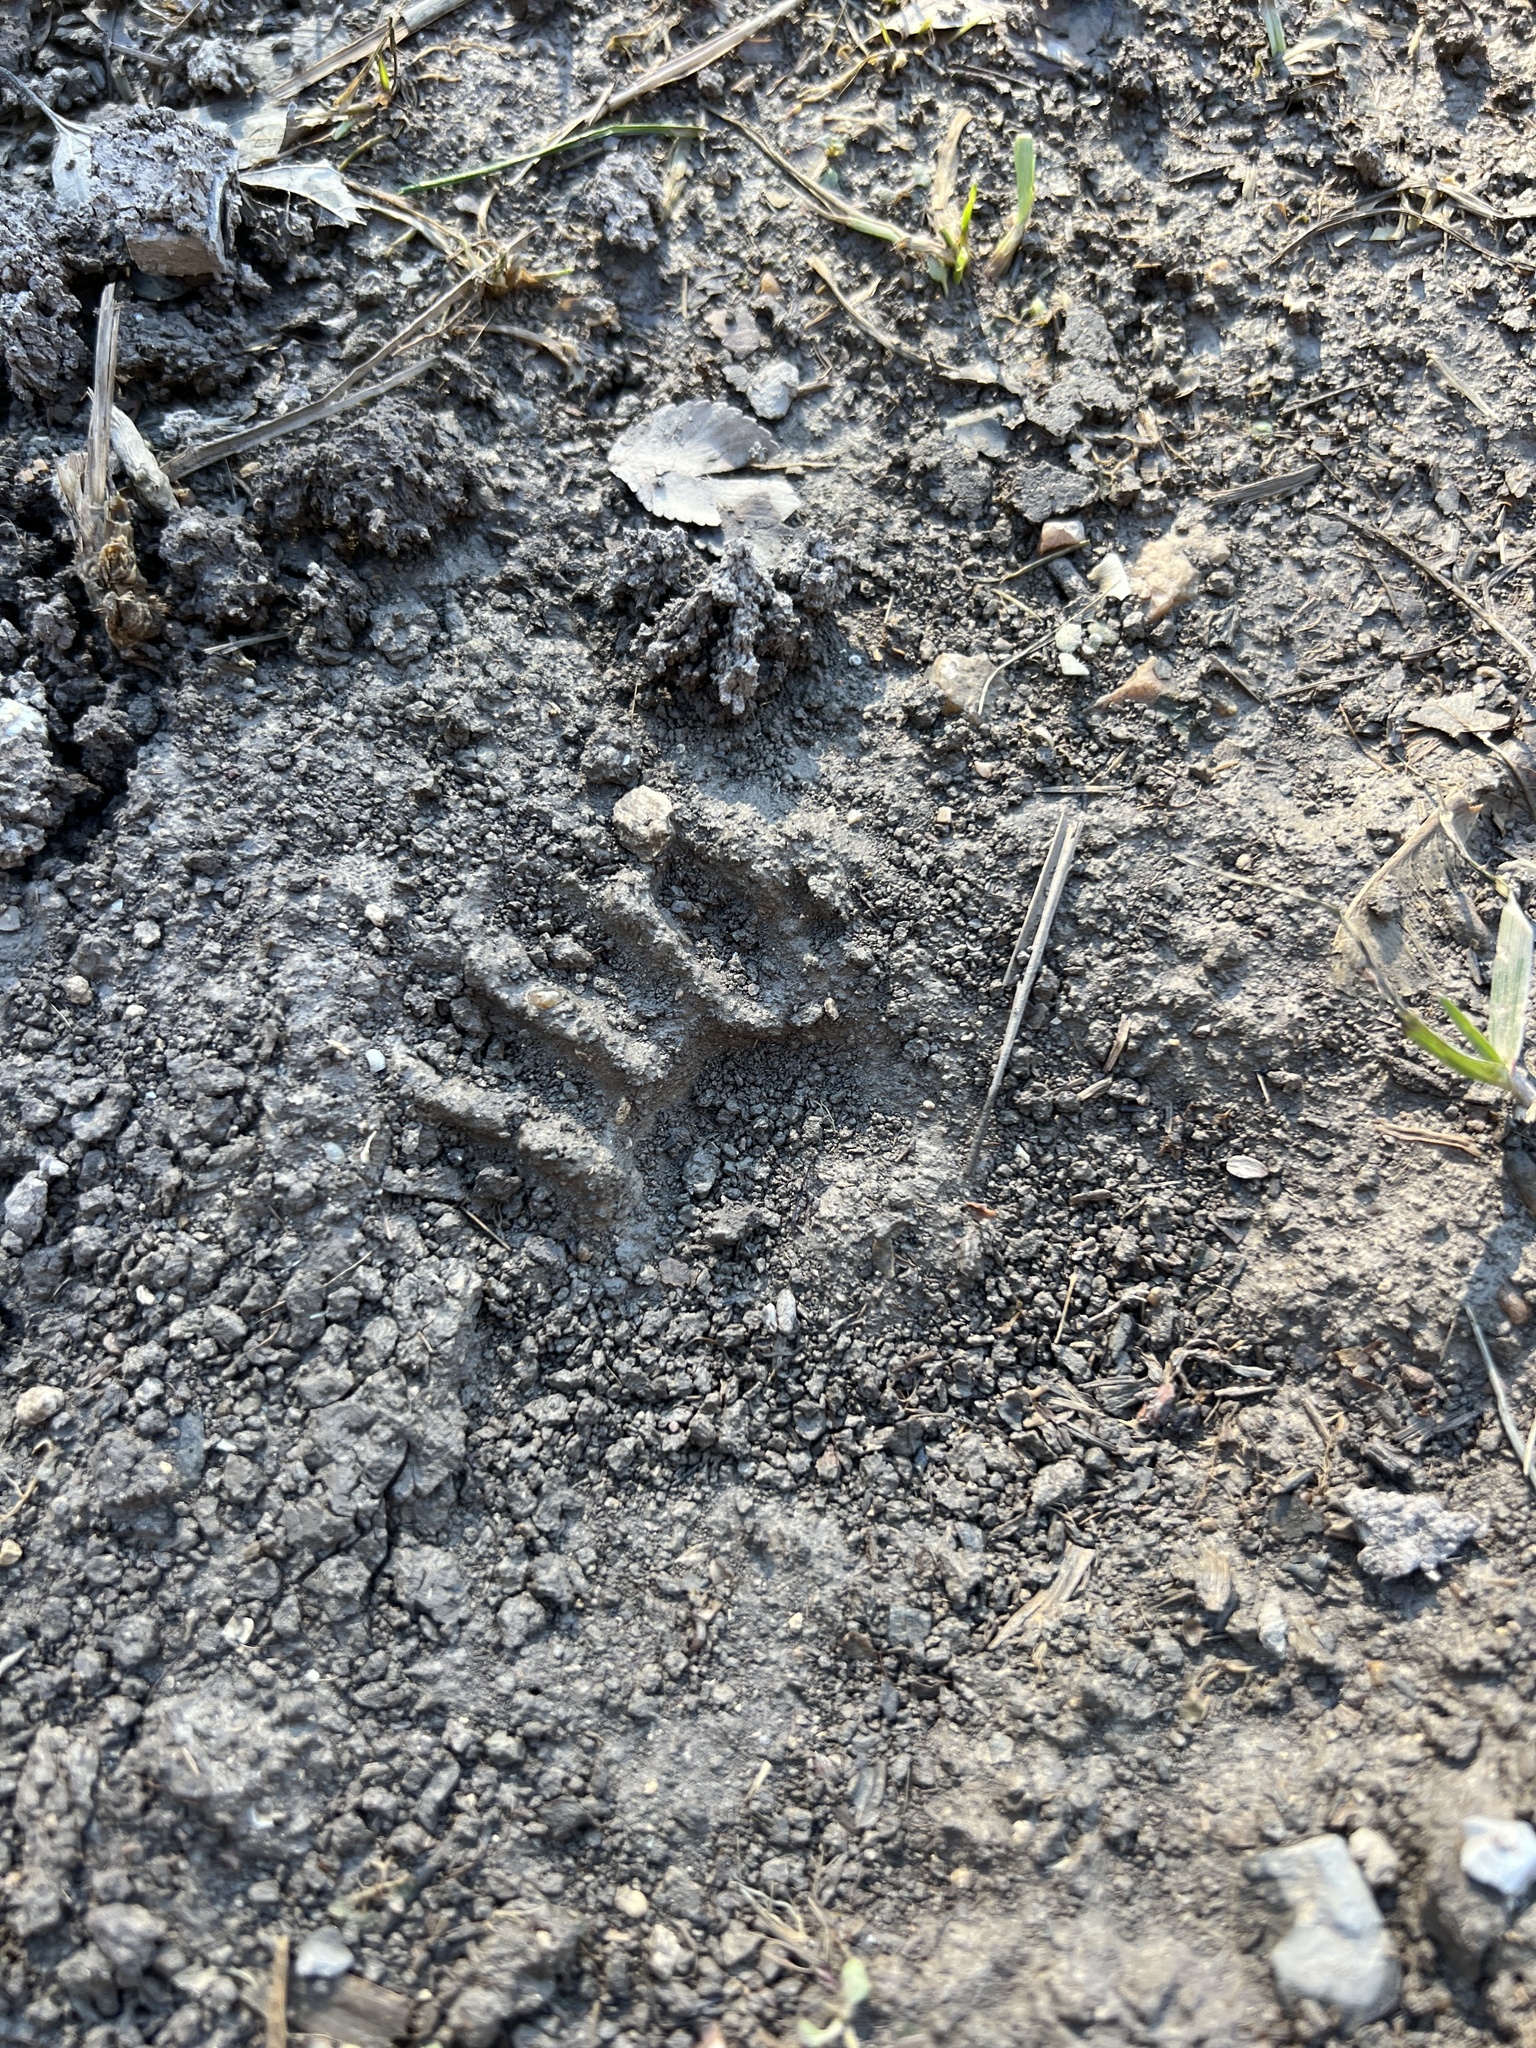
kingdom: Animalia
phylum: Chordata
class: Mammalia
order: Carnivora
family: Procyonidae
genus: Procyon
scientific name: Procyon lotor
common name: Raccoon
